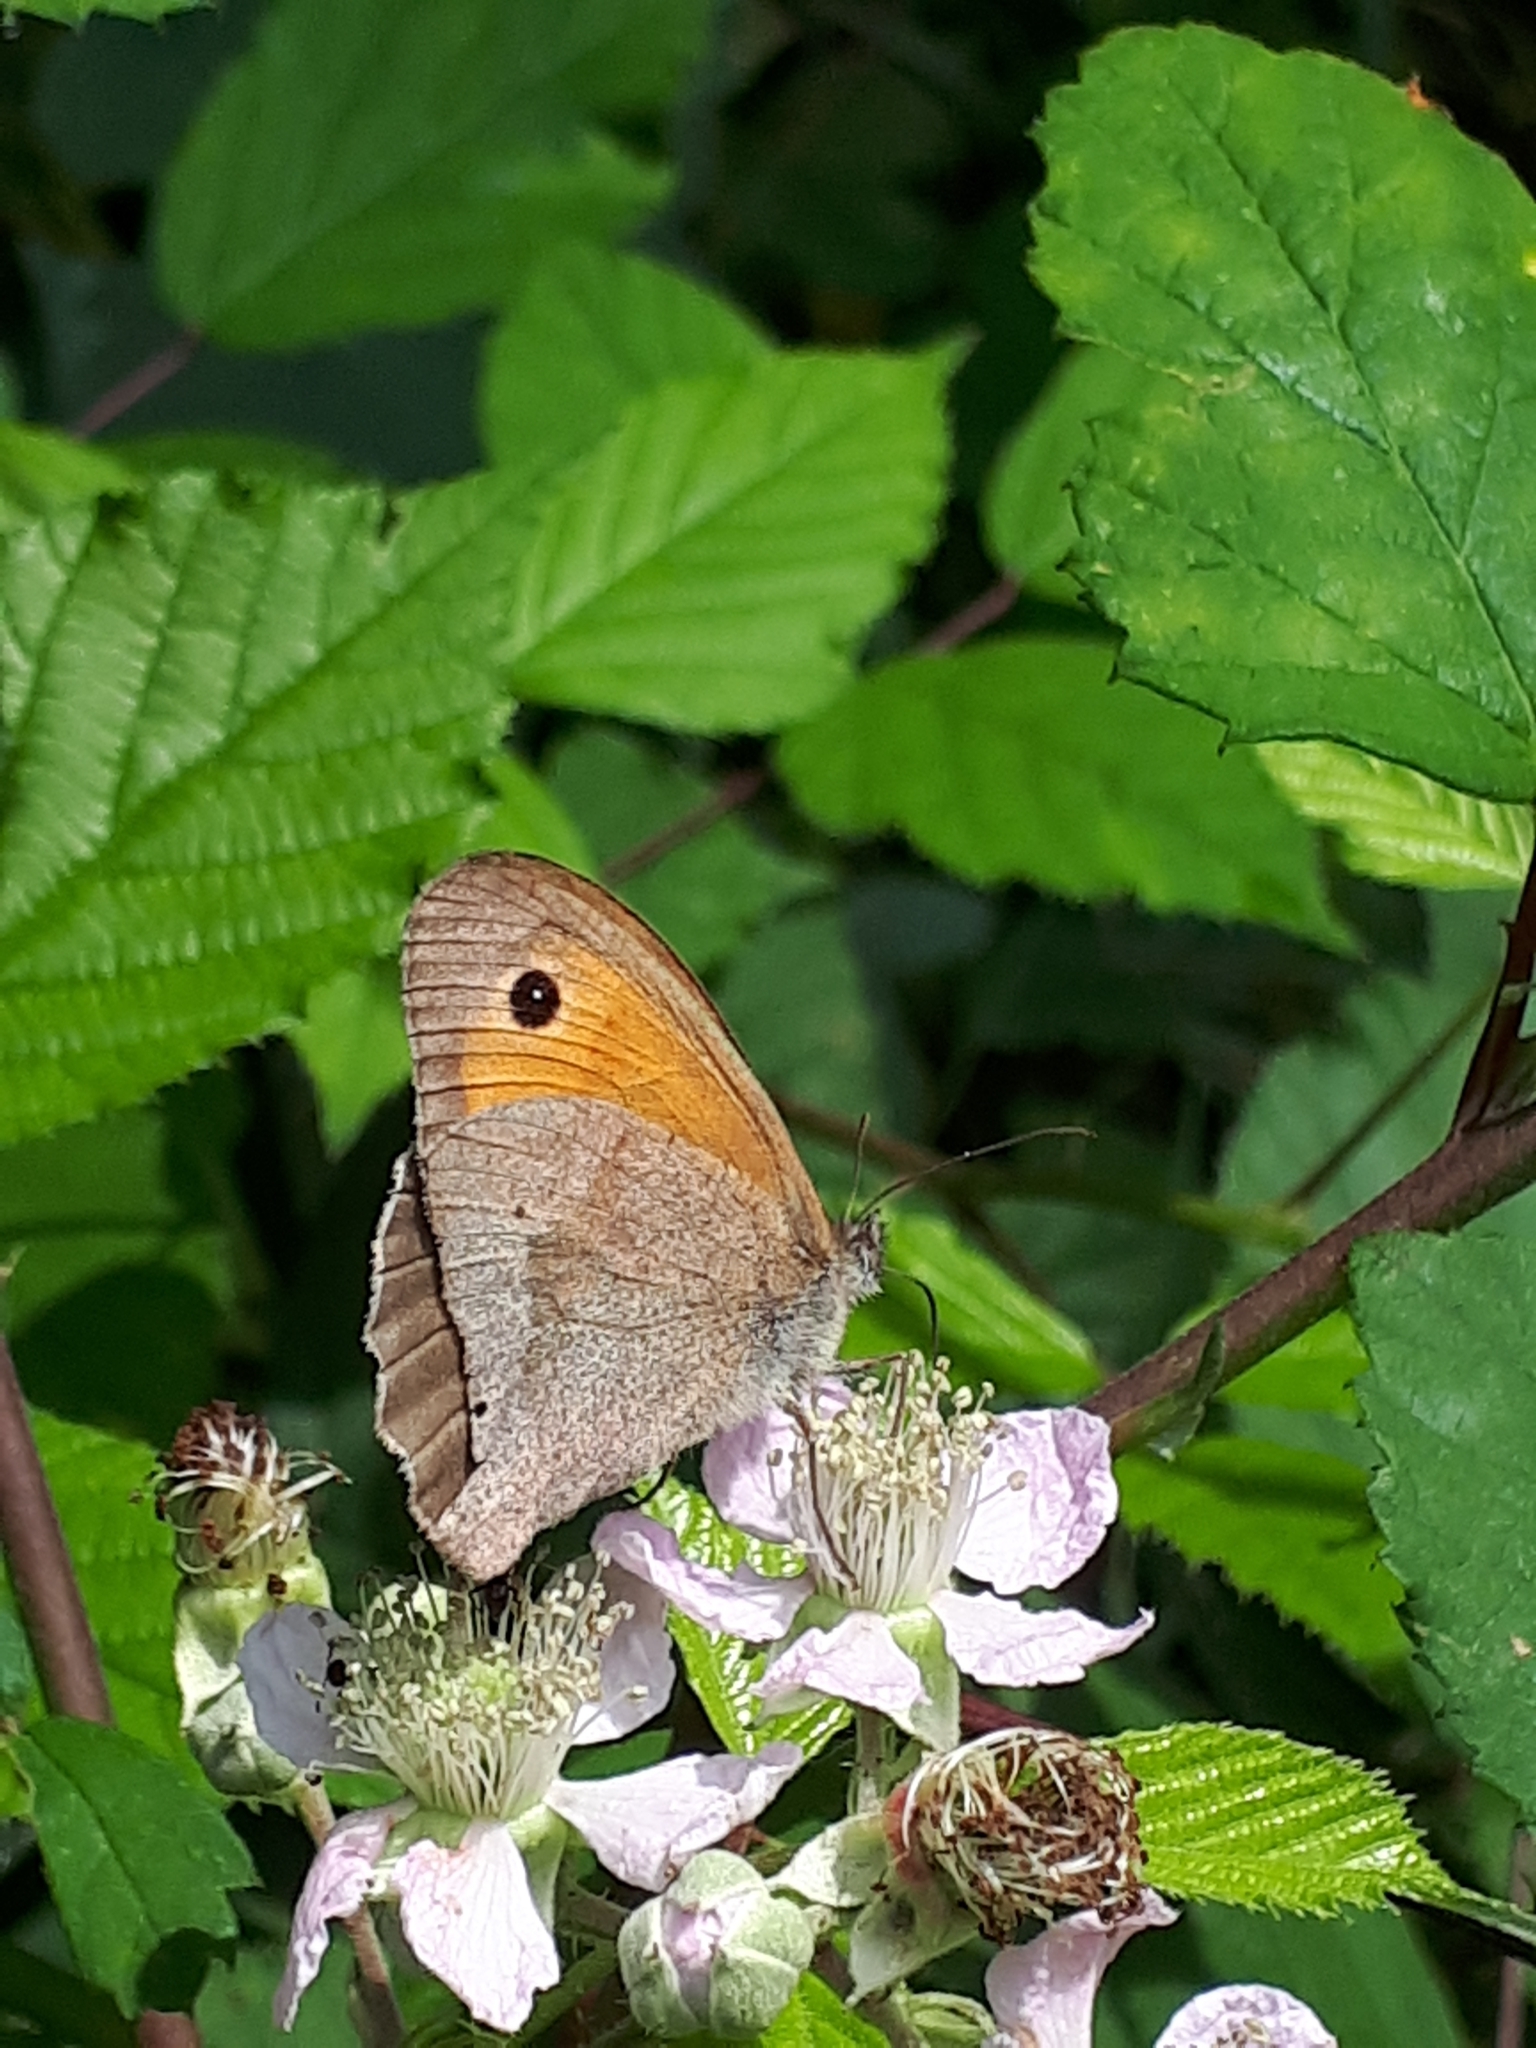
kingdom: Animalia
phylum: Arthropoda
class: Insecta
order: Lepidoptera
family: Nymphalidae
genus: Maniola
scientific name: Maniola jurtina
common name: Meadow brown
